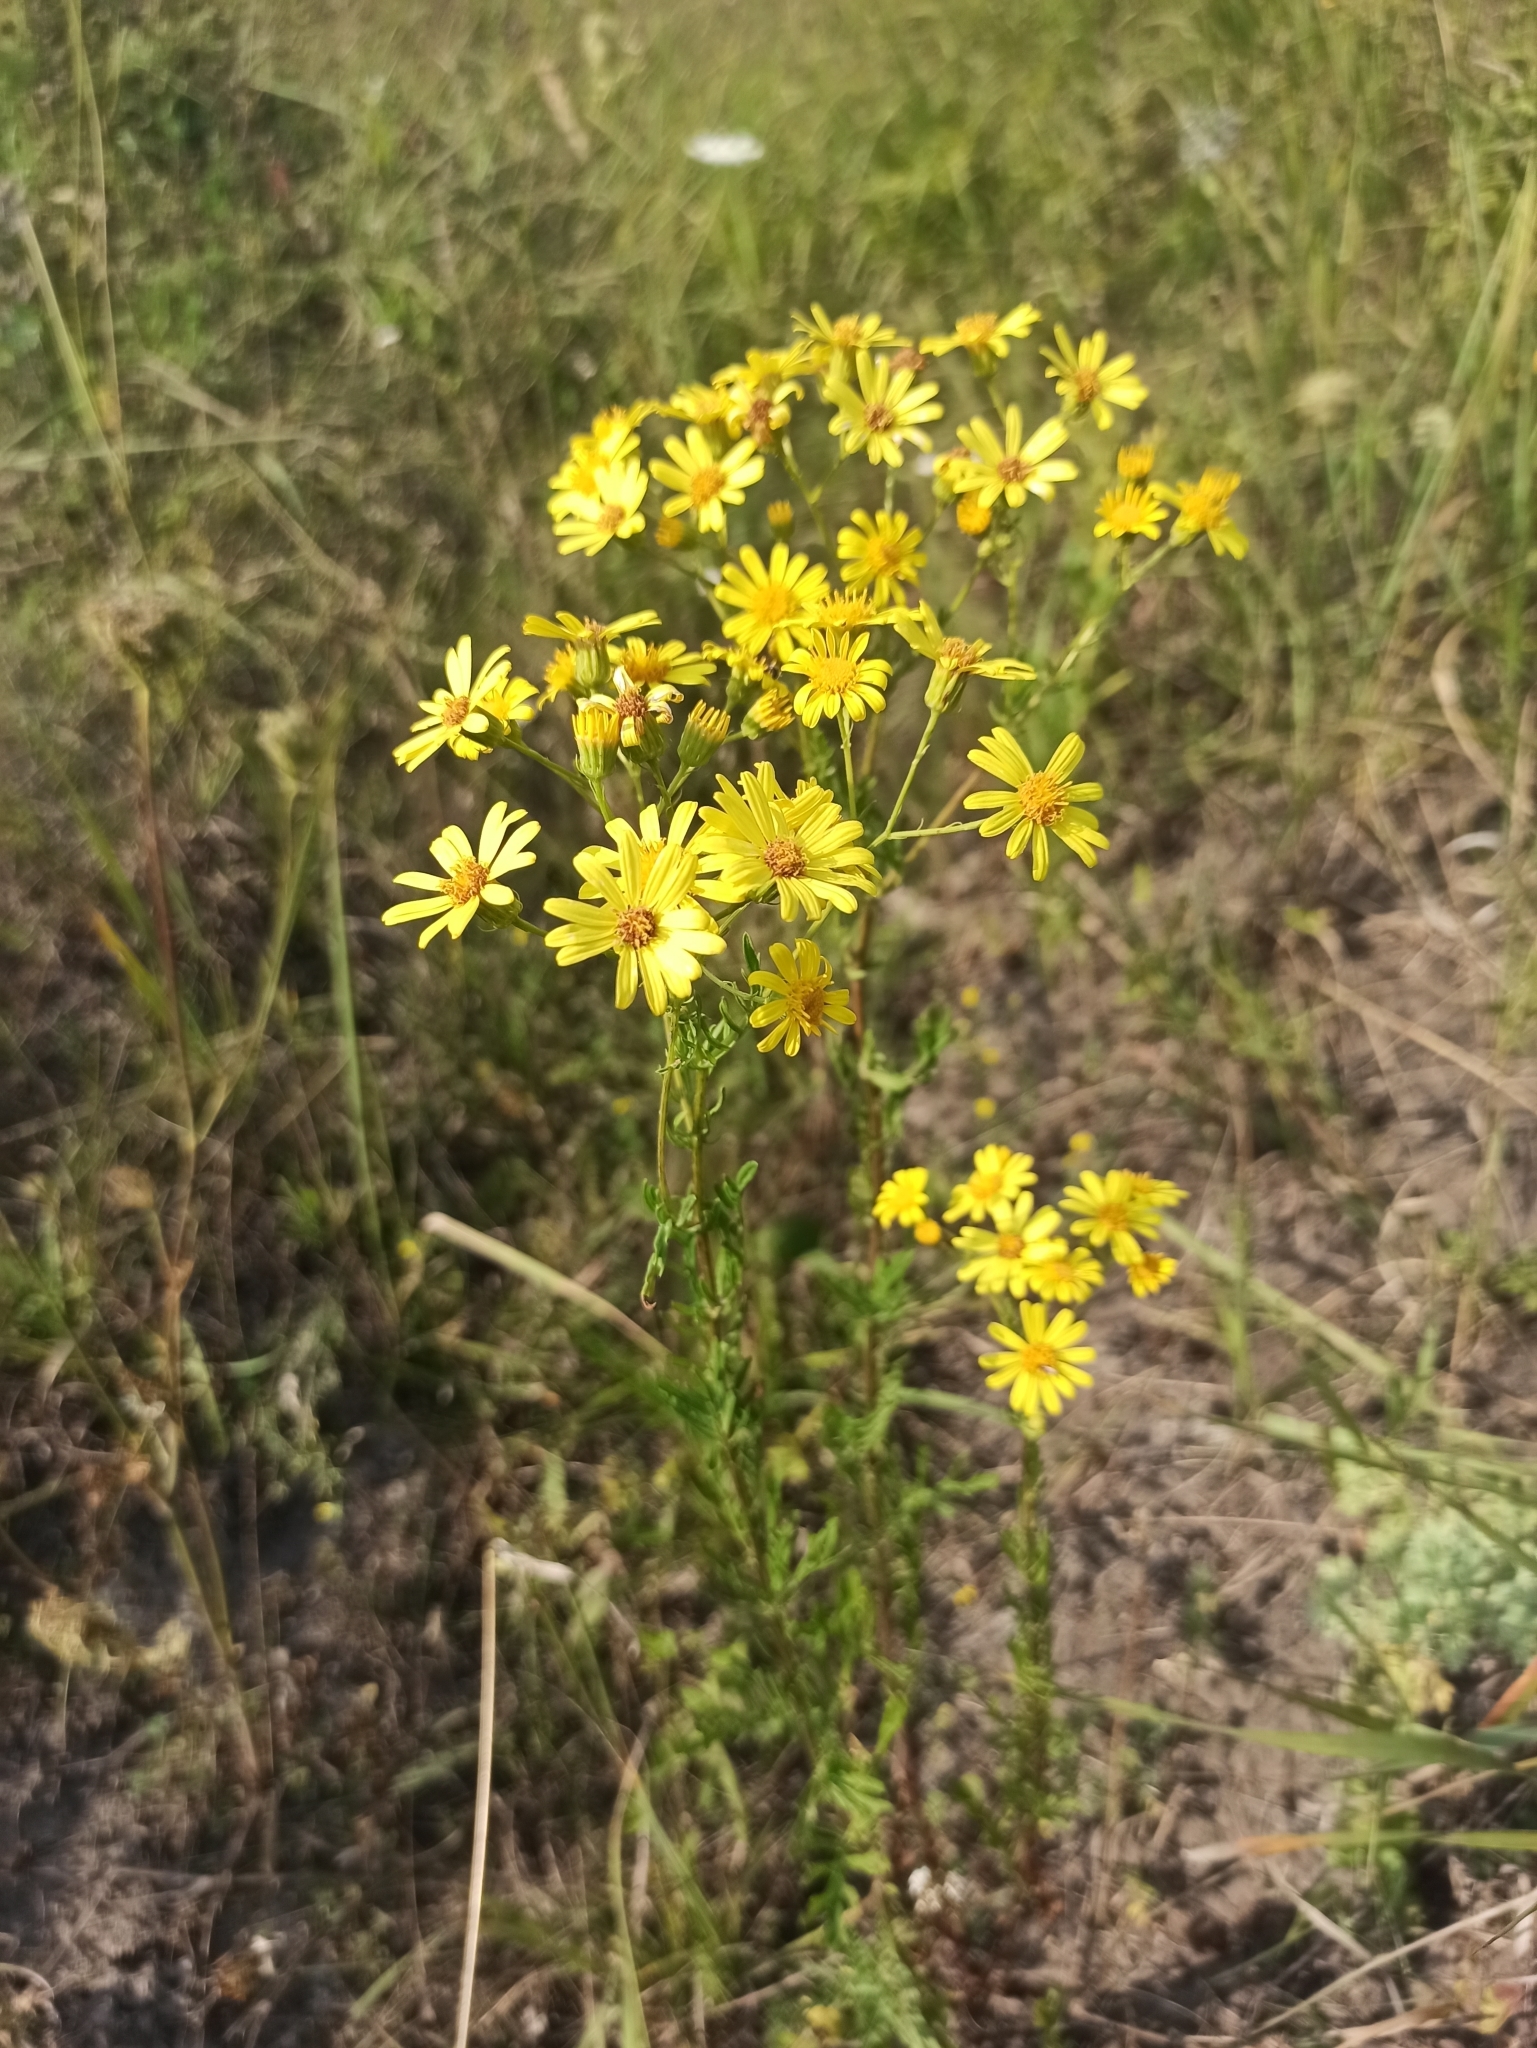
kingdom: Plantae
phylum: Tracheophyta
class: Magnoliopsida
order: Asterales
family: Asteraceae
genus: Jacobaea
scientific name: Jacobaea vulgaris
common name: Stinking willie
